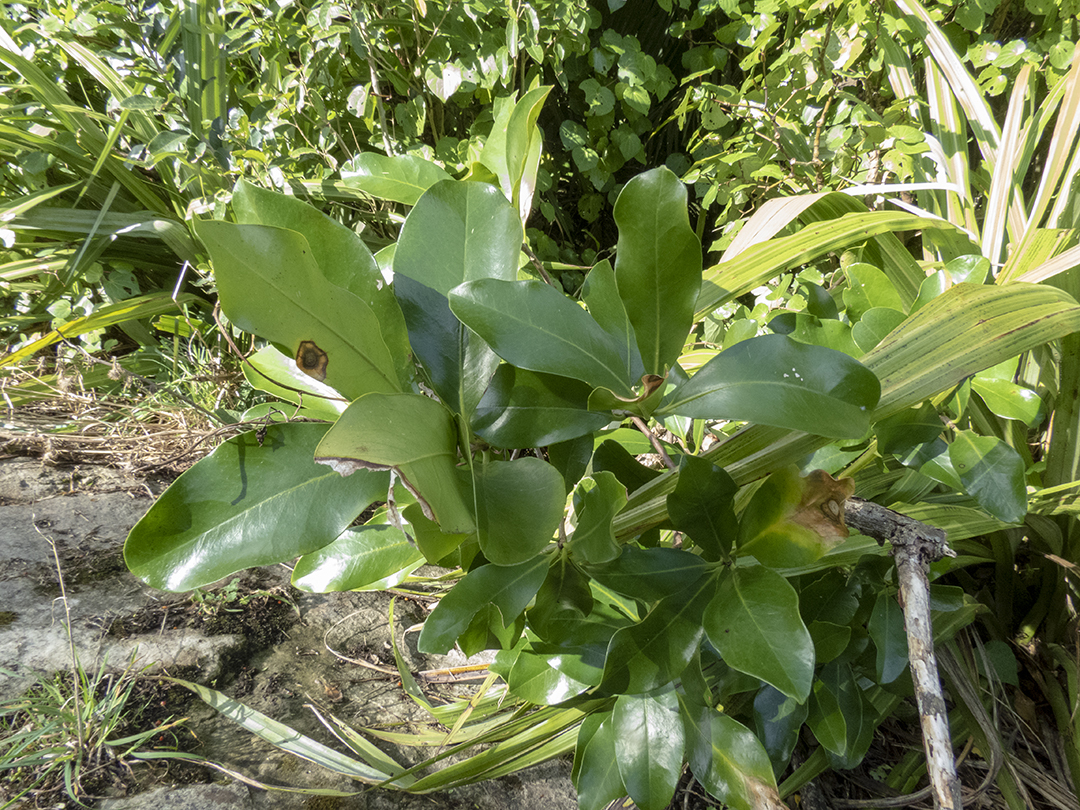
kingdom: Plantae
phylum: Tracheophyta
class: Magnoliopsida
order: Cucurbitales
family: Corynocarpaceae
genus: Corynocarpus
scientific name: Corynocarpus laevigatus
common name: New zealand laurel
